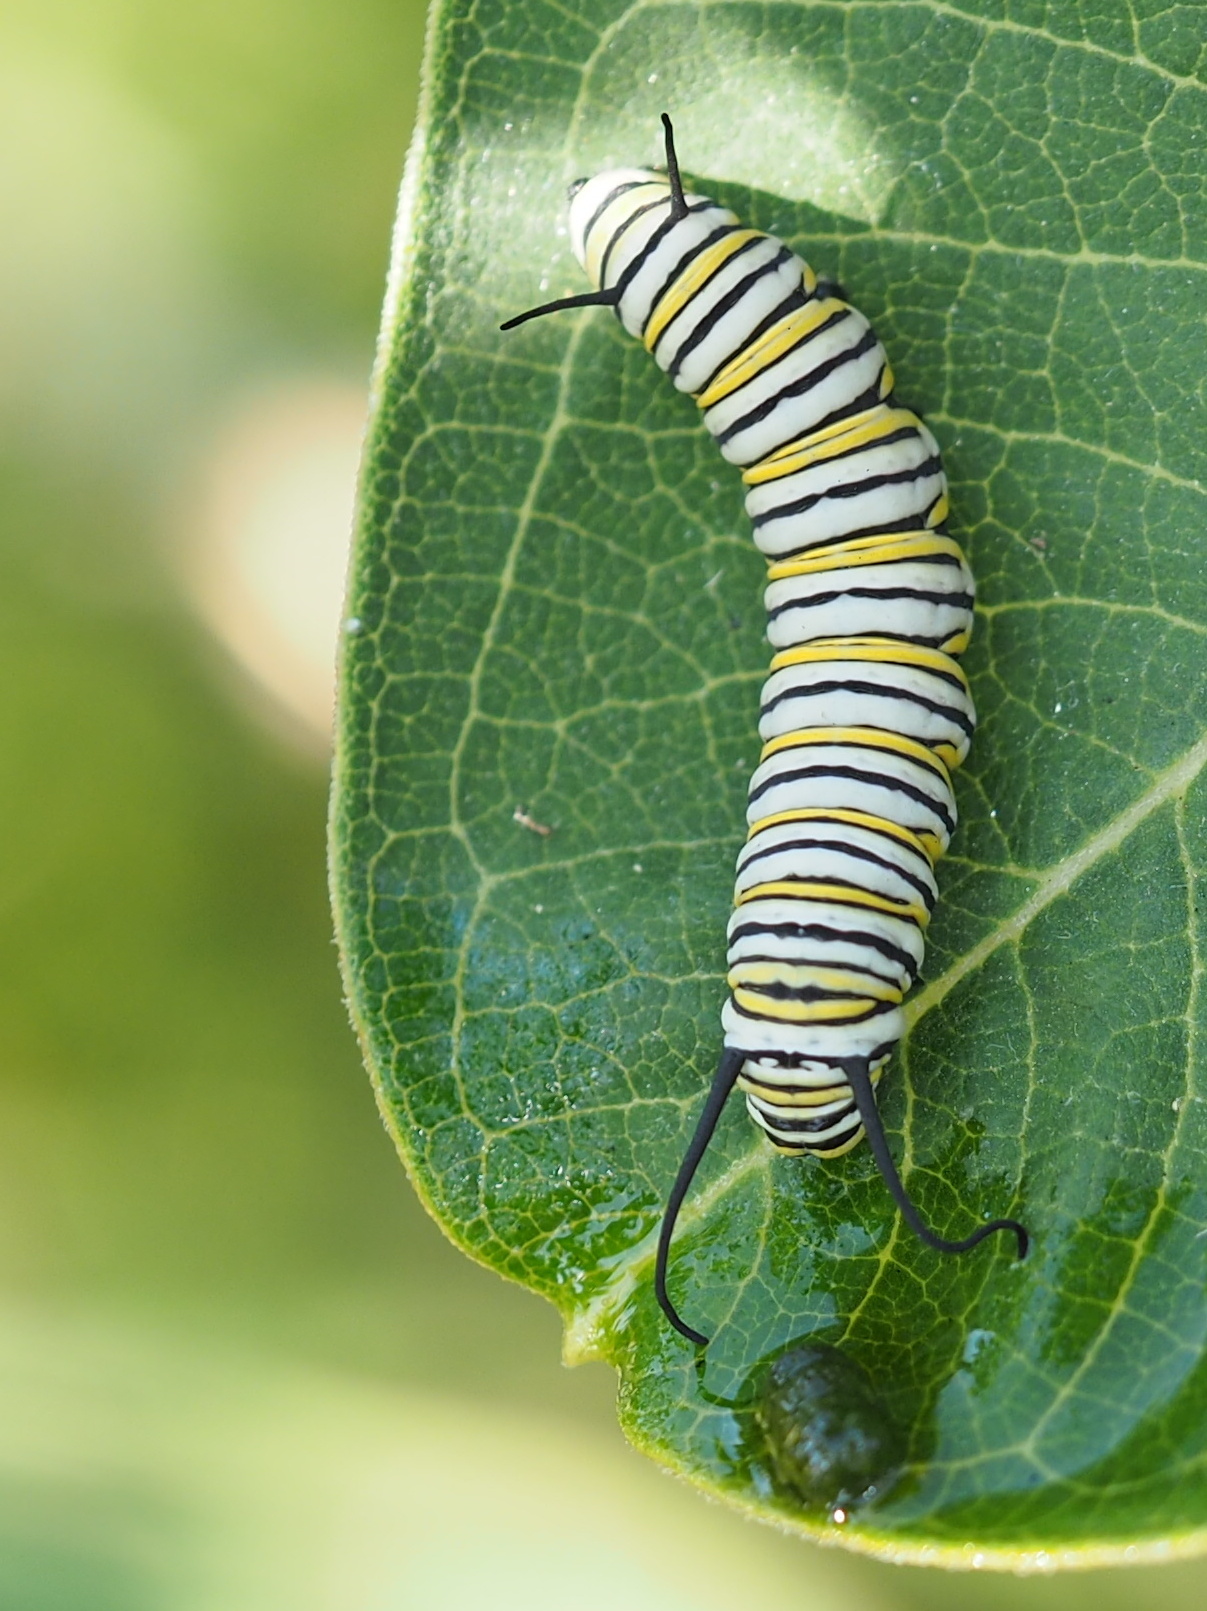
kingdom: Animalia
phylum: Arthropoda
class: Insecta
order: Lepidoptera
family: Nymphalidae
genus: Danaus
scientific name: Danaus plexippus
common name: Monarch
